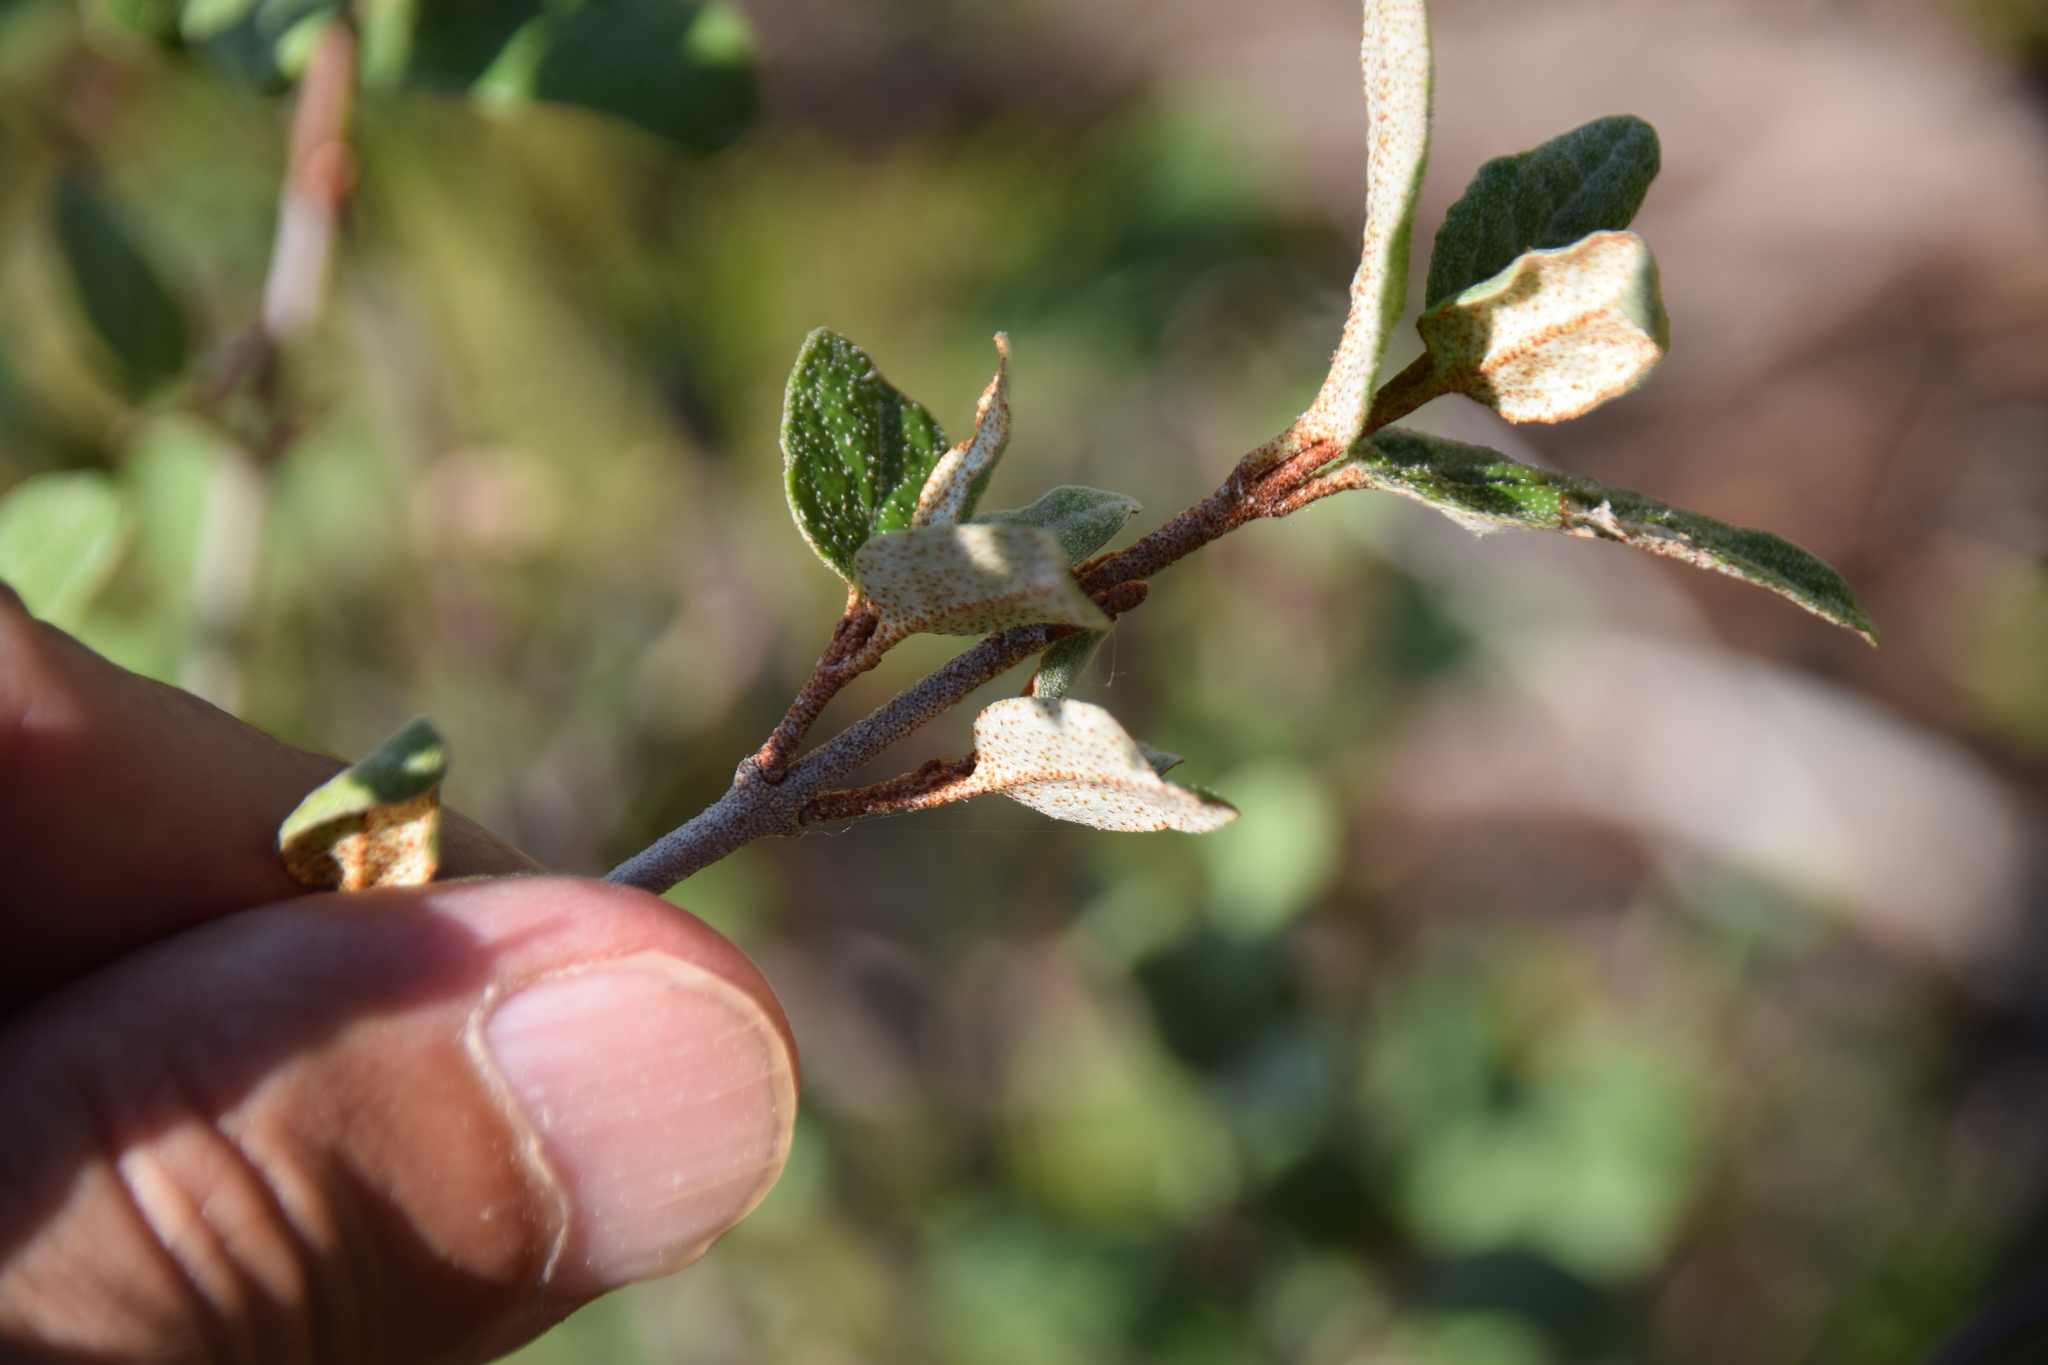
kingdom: Plantae
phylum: Tracheophyta
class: Magnoliopsida
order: Rosales
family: Elaeagnaceae
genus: Shepherdia
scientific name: Shepherdia canadensis
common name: Soapberry
